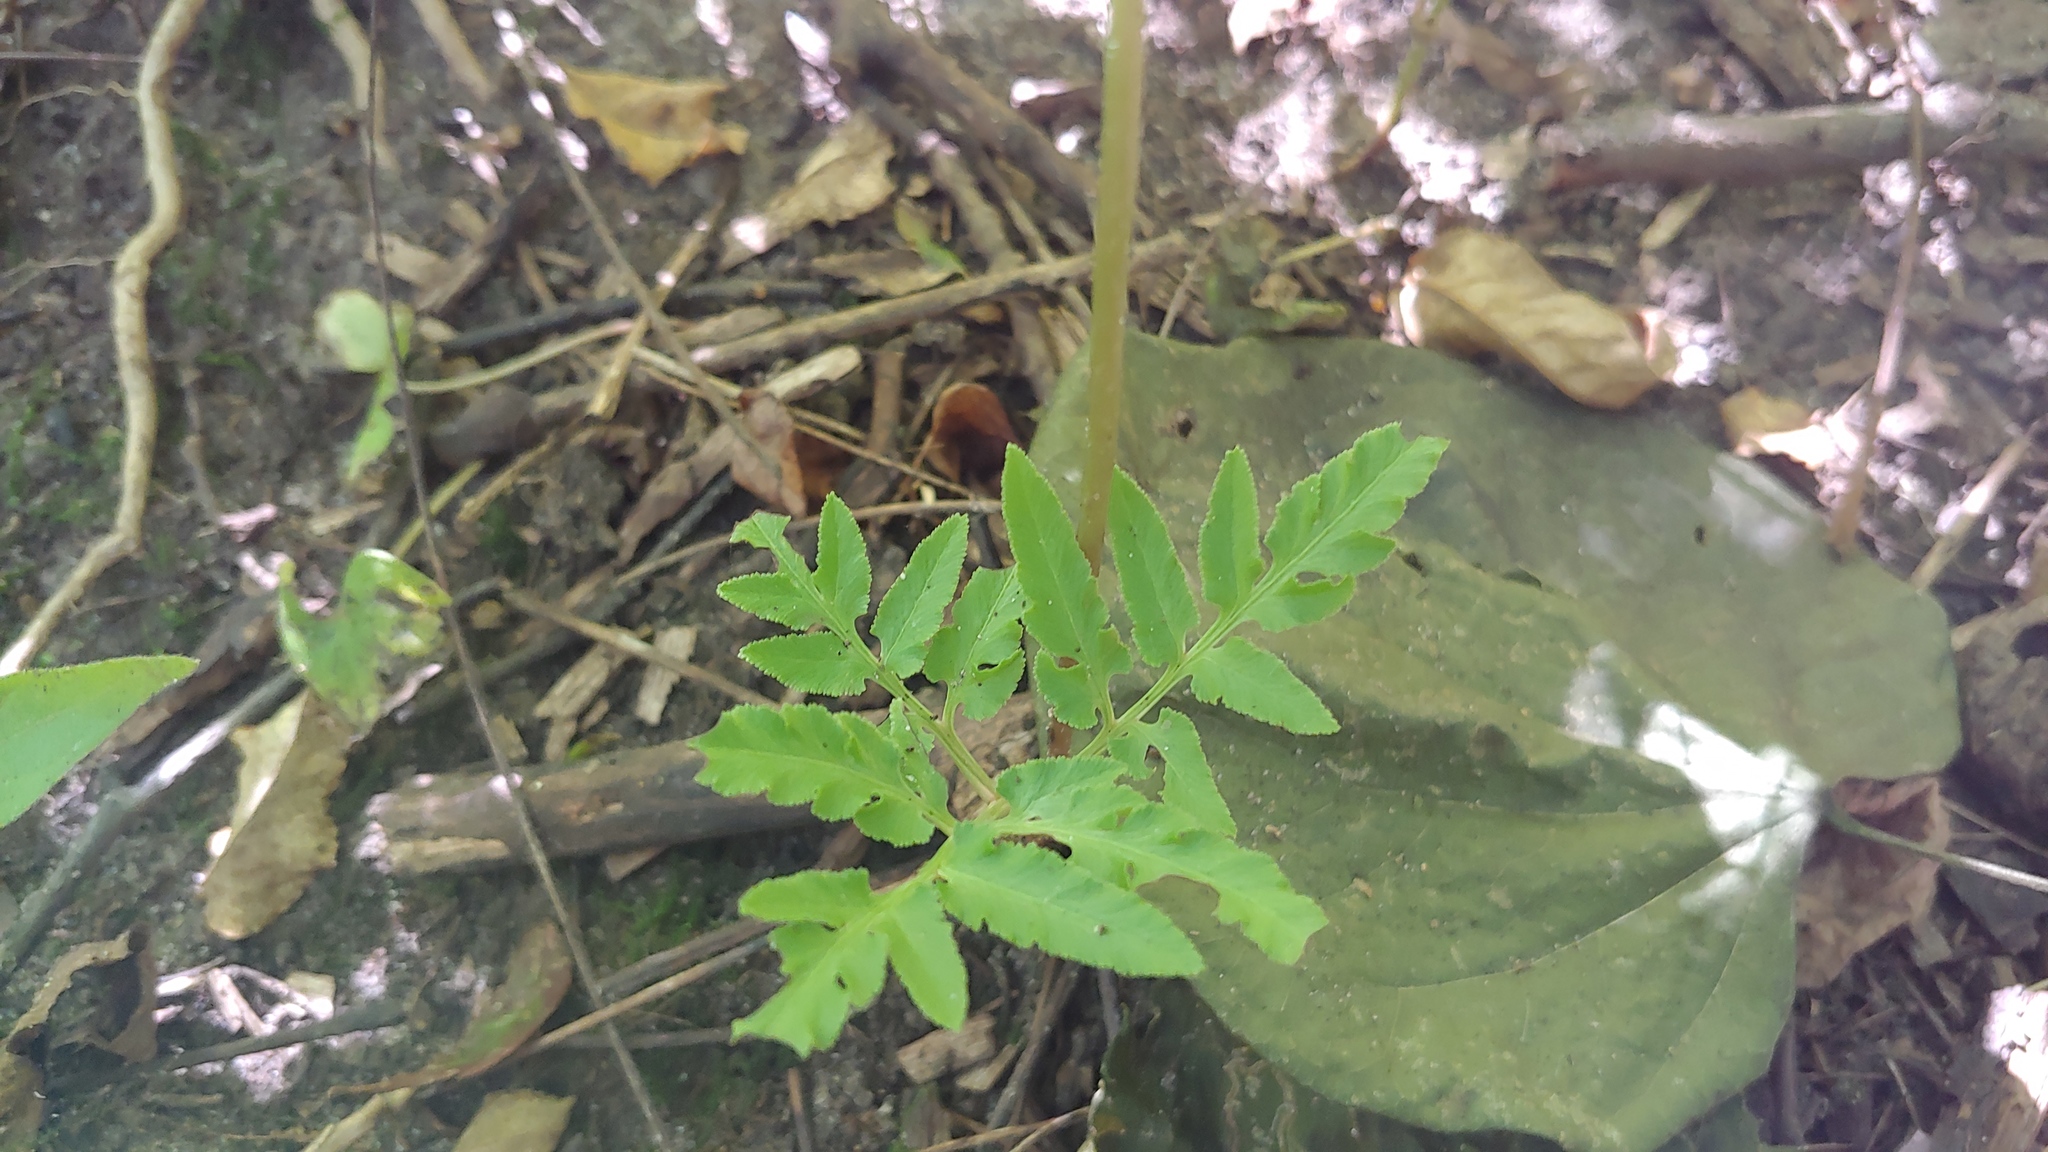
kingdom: Plantae
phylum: Tracheophyta
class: Polypodiopsida
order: Ophioglossales
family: Ophioglossaceae
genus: Sceptridium
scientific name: Sceptridium dissectum
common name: Cut-leaved grapefern
